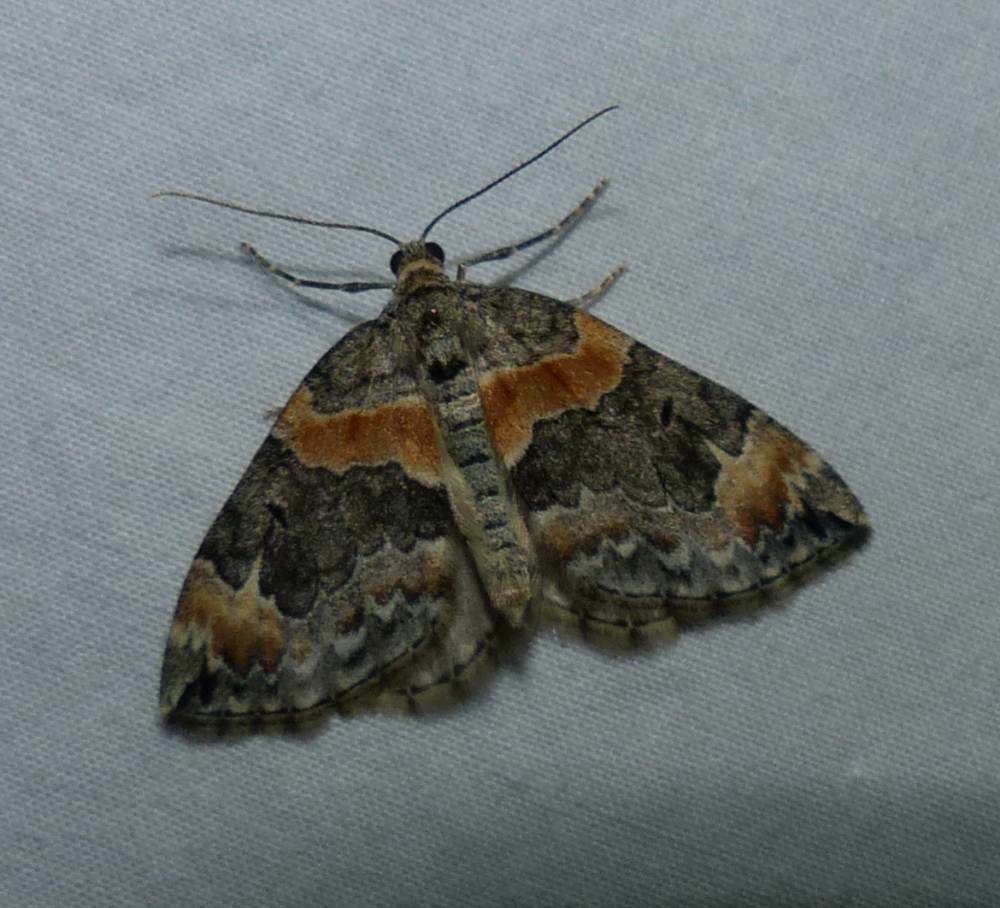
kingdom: Animalia
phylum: Arthropoda
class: Insecta
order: Lepidoptera
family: Geometridae
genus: Dysstroma
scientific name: Dysstroma hersiliata
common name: Orange-barred carpet
